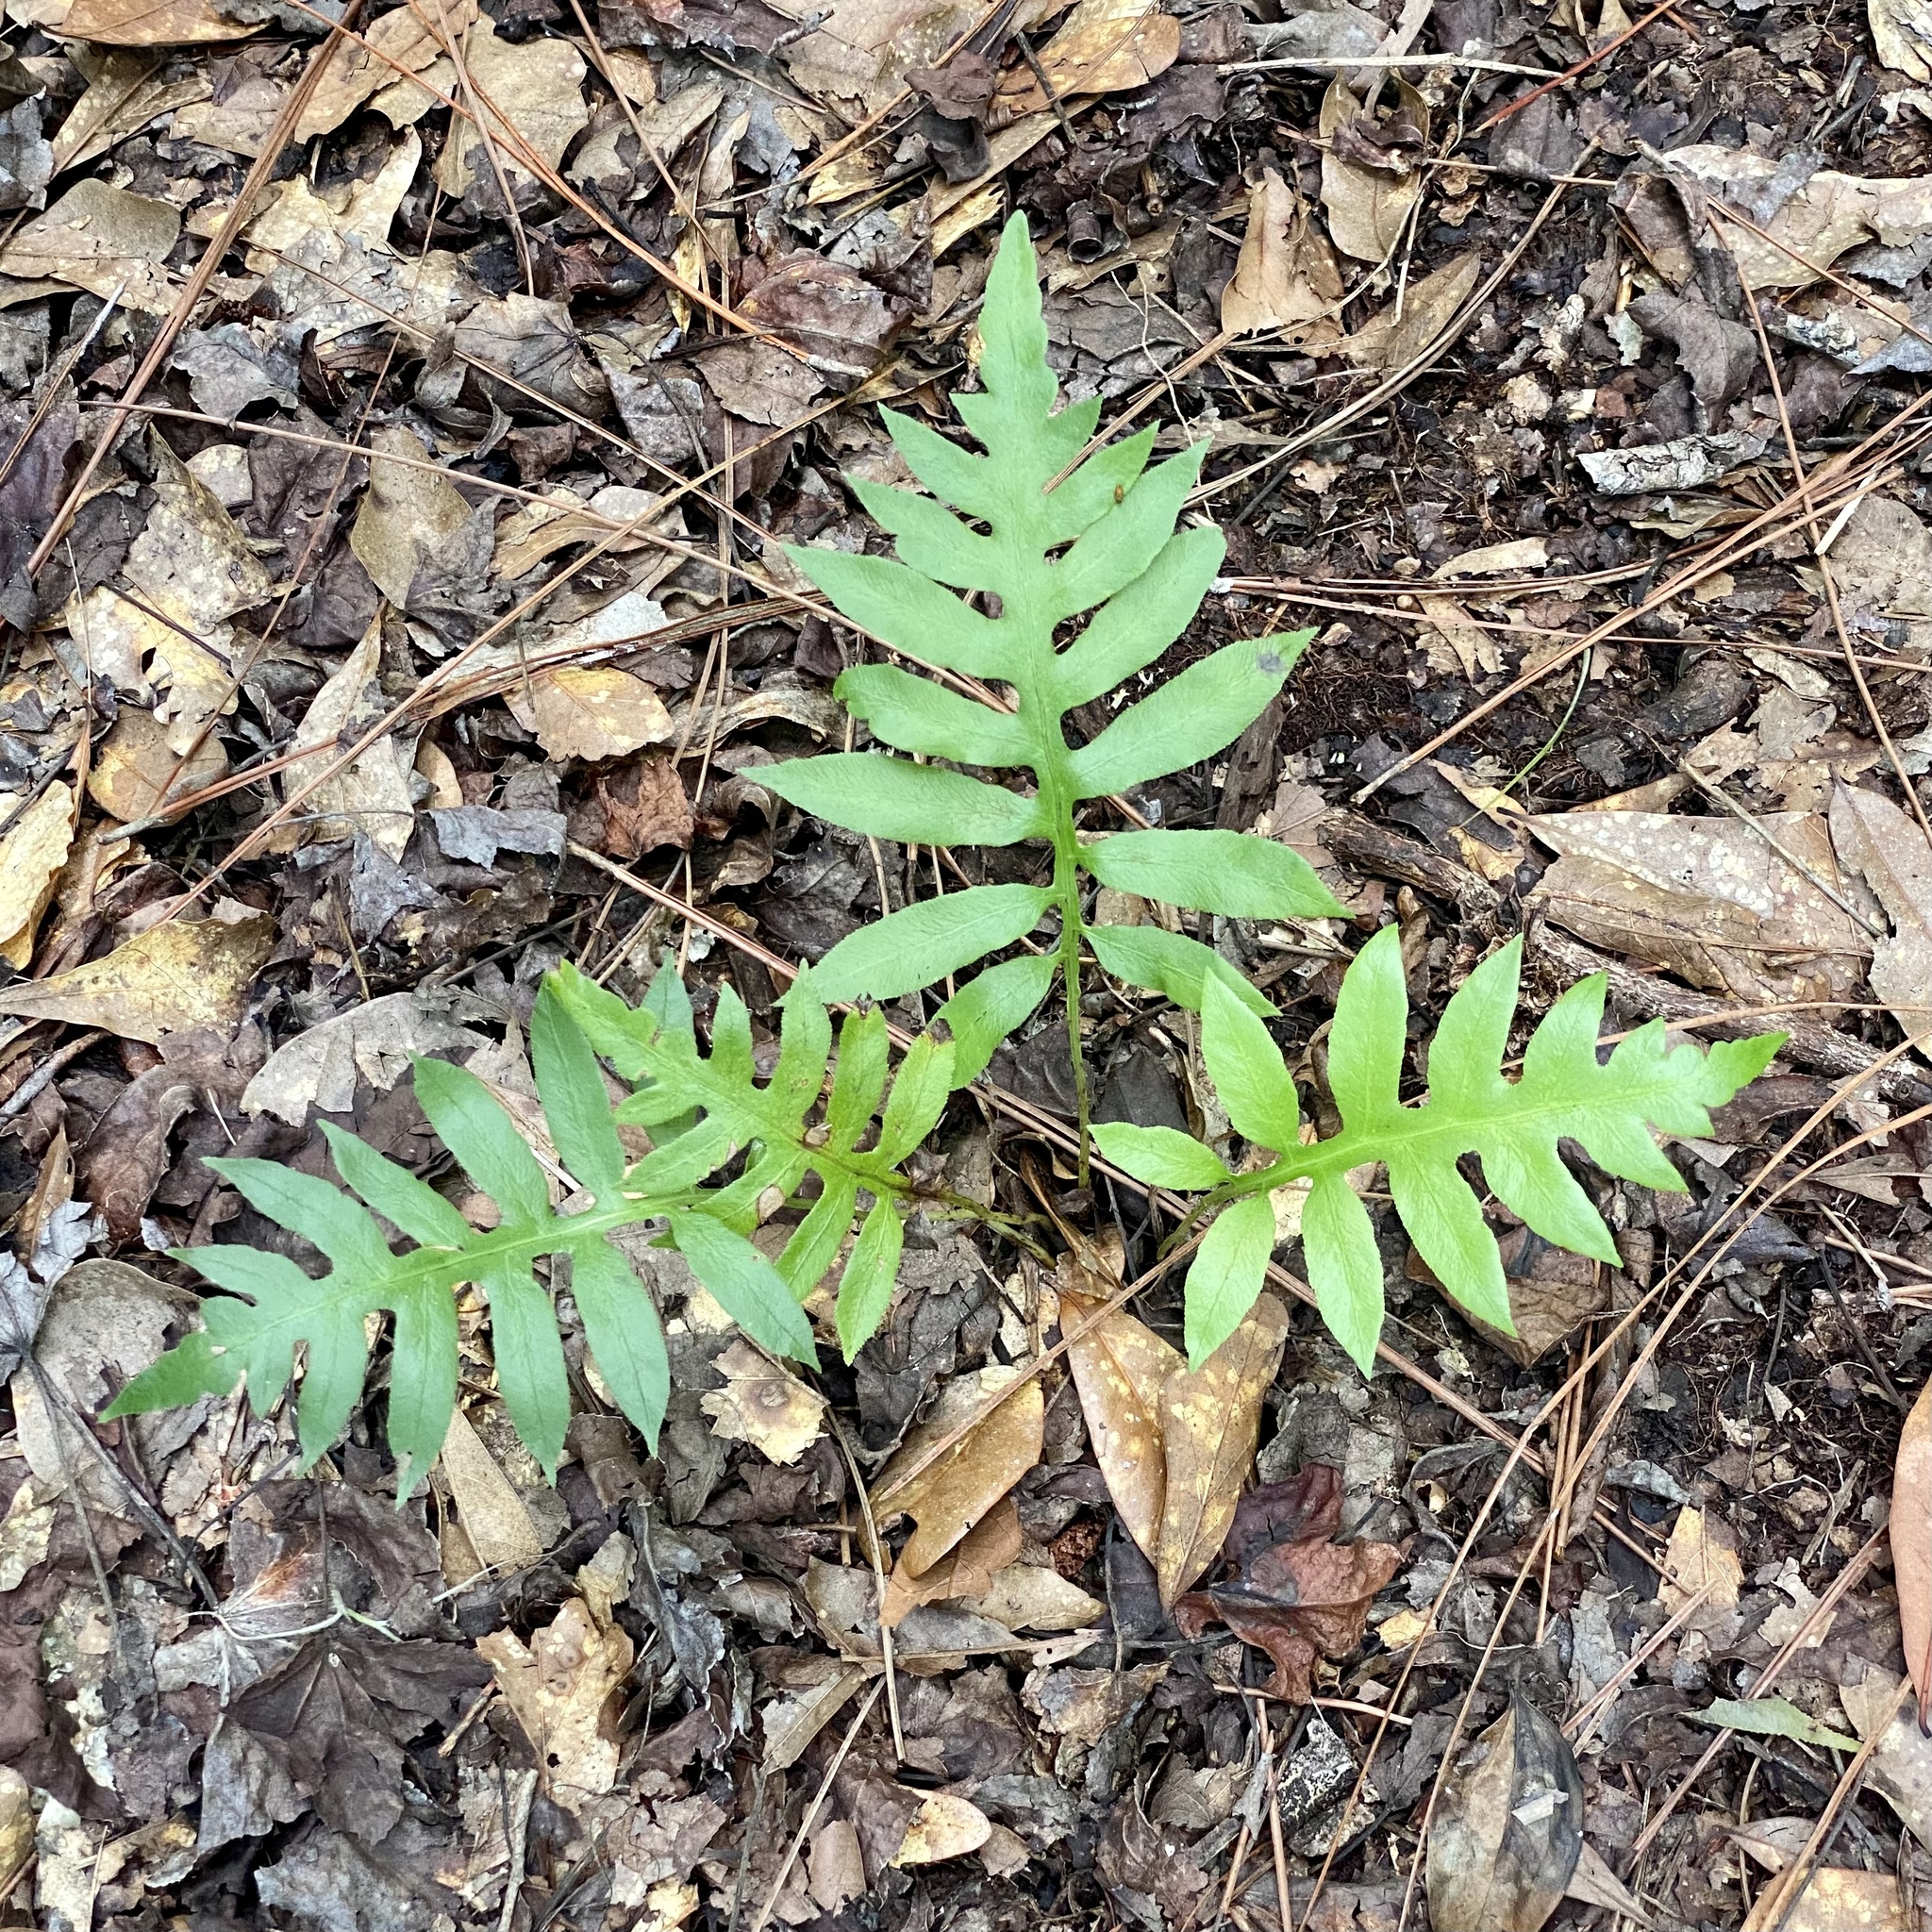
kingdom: Plantae
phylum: Tracheophyta
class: Polypodiopsida
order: Polypodiales
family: Blechnaceae
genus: Lorinseria
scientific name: Lorinseria areolata
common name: Dwarf chain fern
